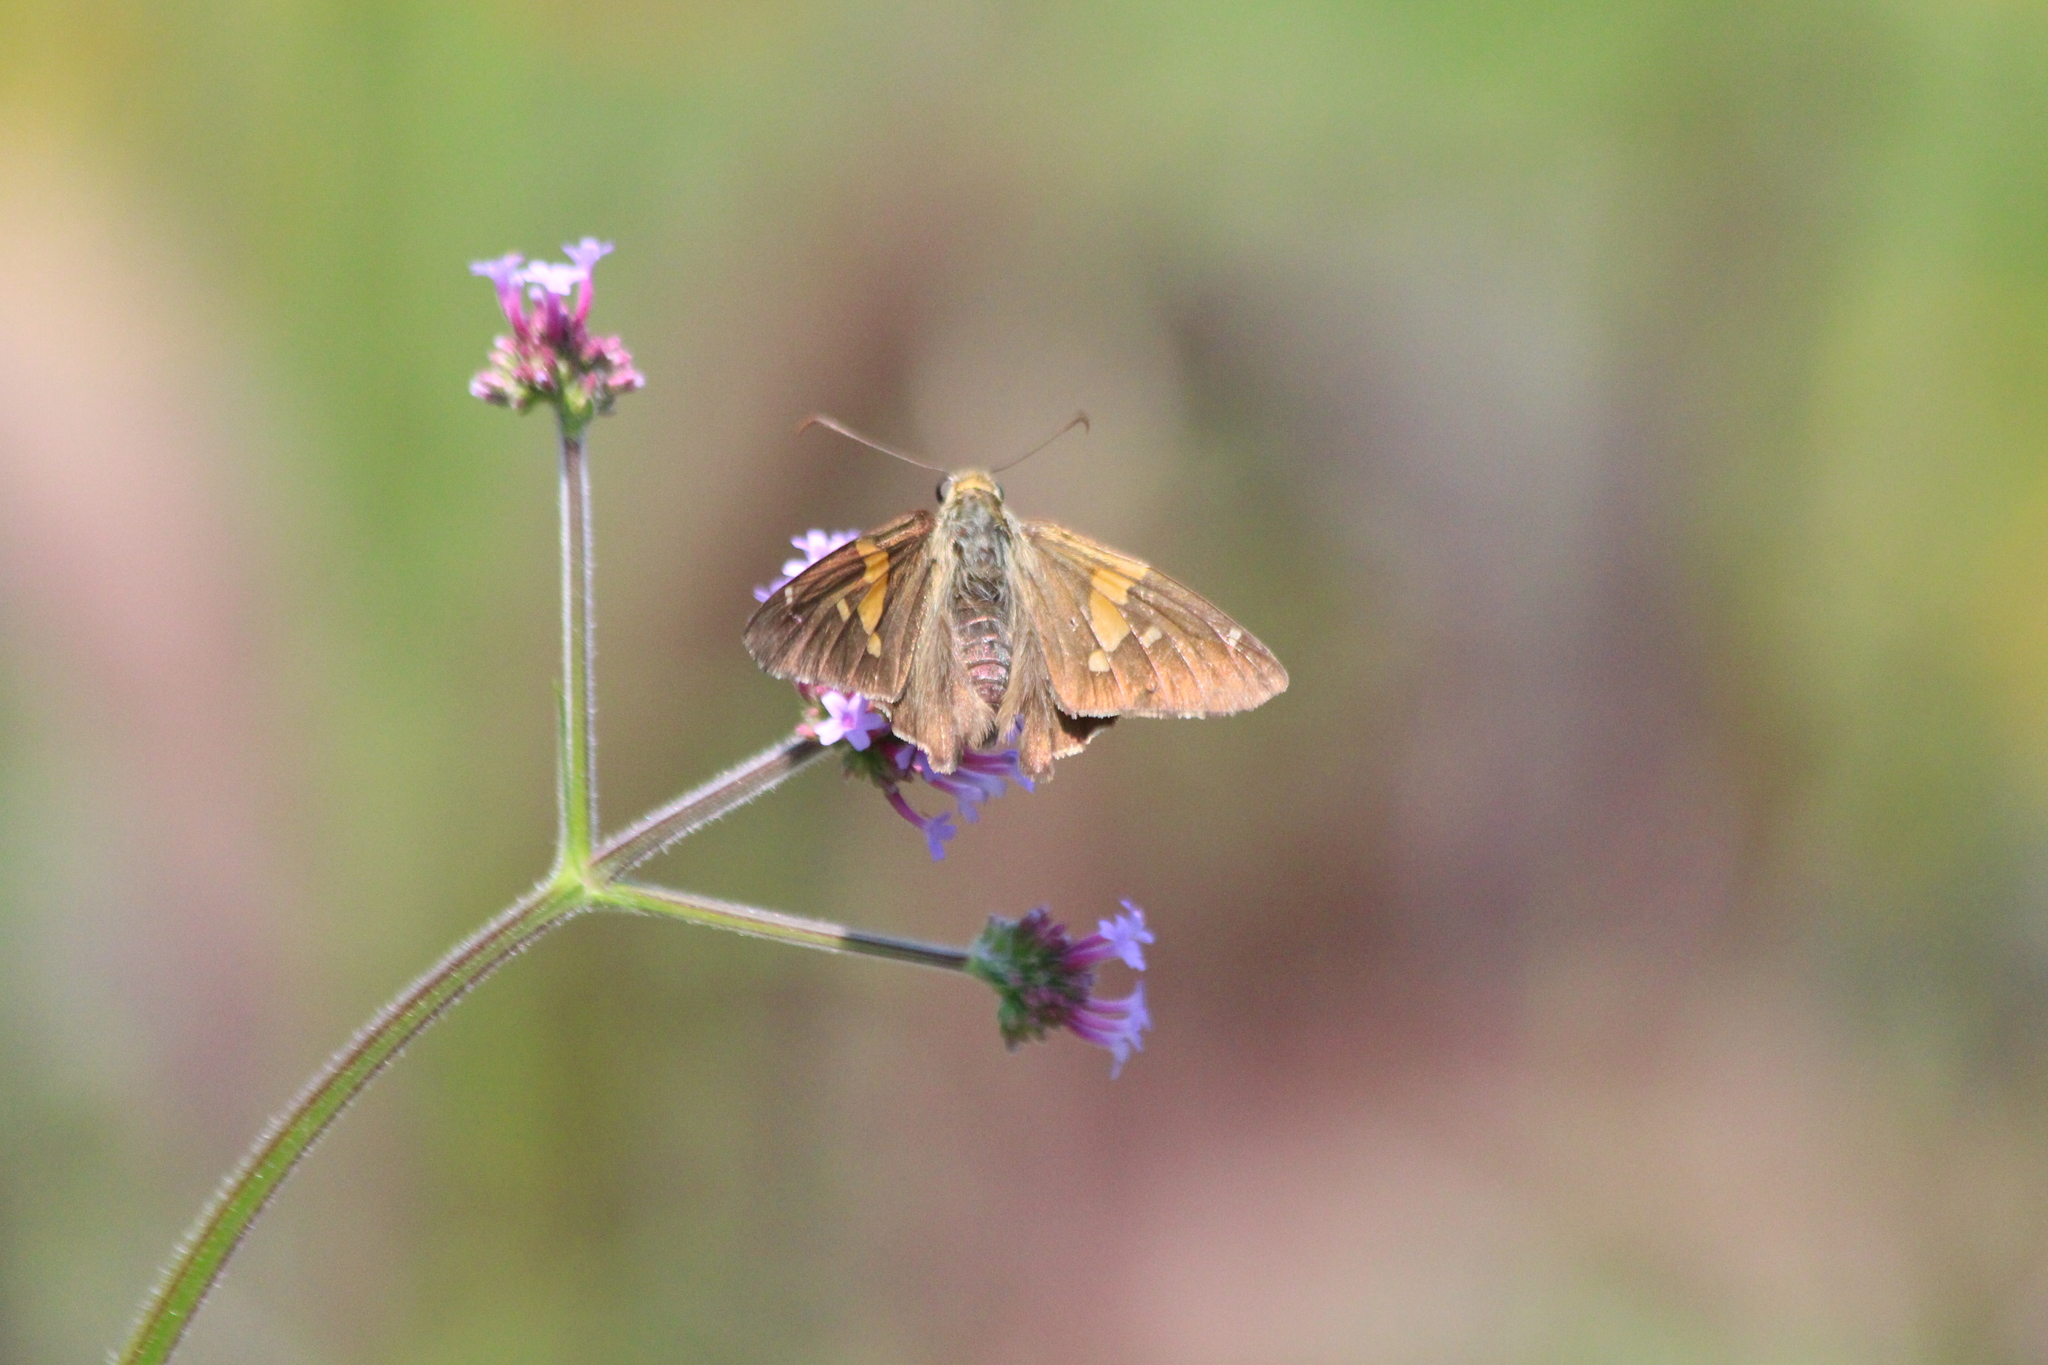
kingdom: Animalia
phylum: Arthropoda
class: Insecta
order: Lepidoptera
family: Hesperiidae
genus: Epargyreus
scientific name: Epargyreus clarus
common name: Silver-spotted skipper
